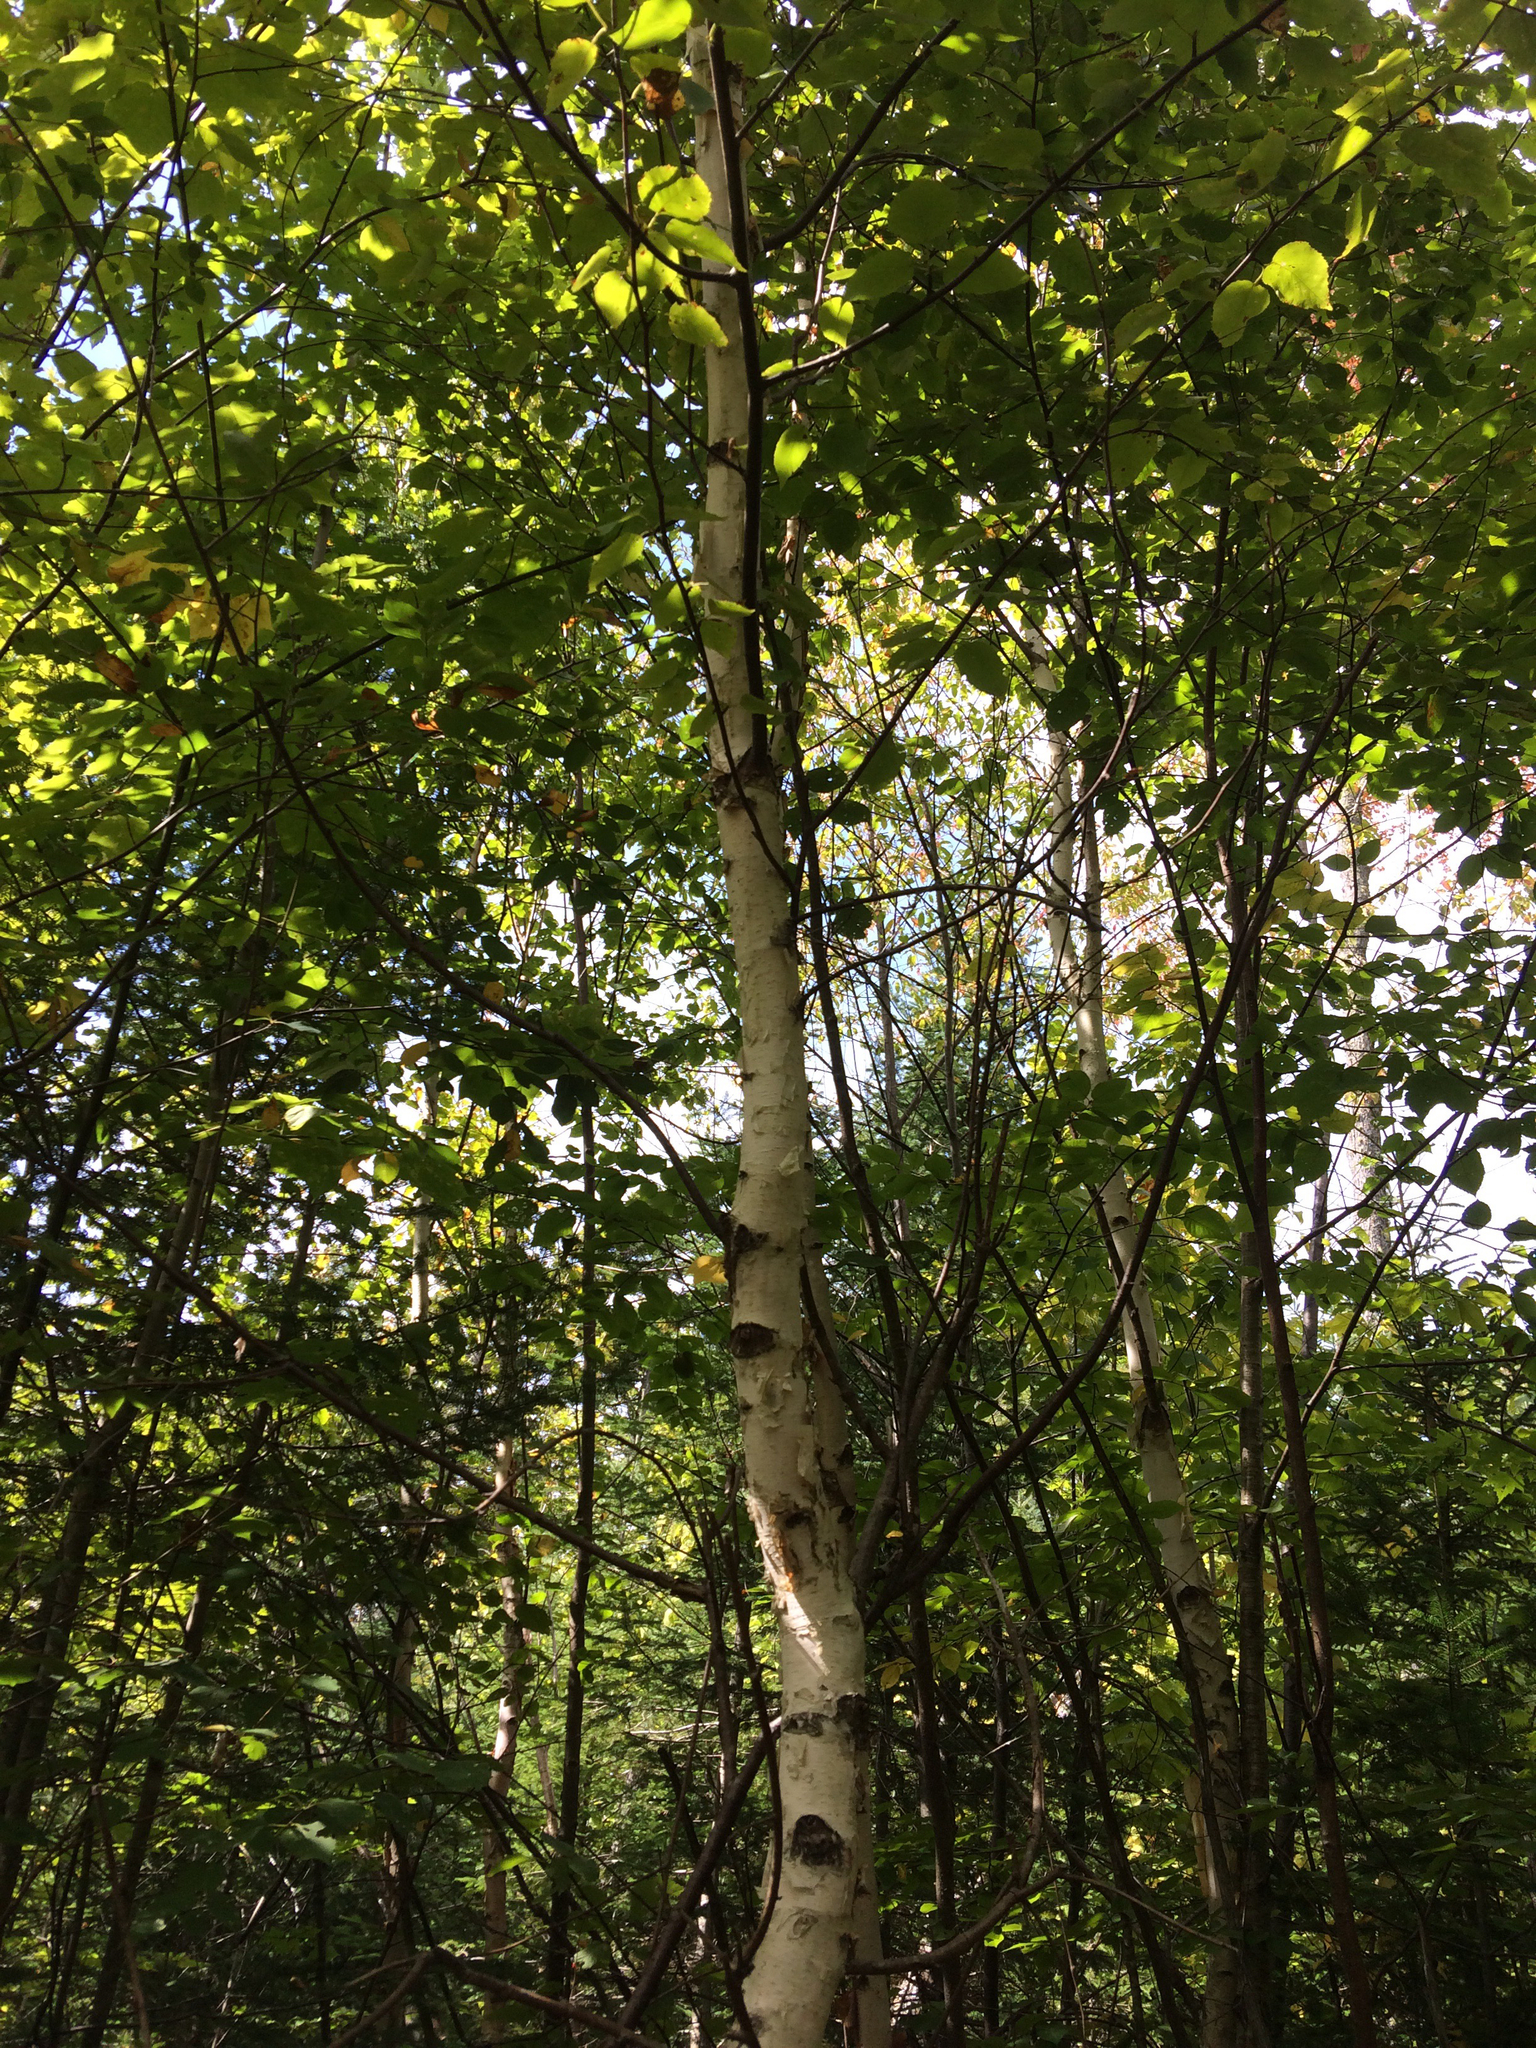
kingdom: Plantae
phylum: Tracheophyta
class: Magnoliopsida
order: Fagales
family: Betulaceae
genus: Betula
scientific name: Betula papyrifera
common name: Paper birch
